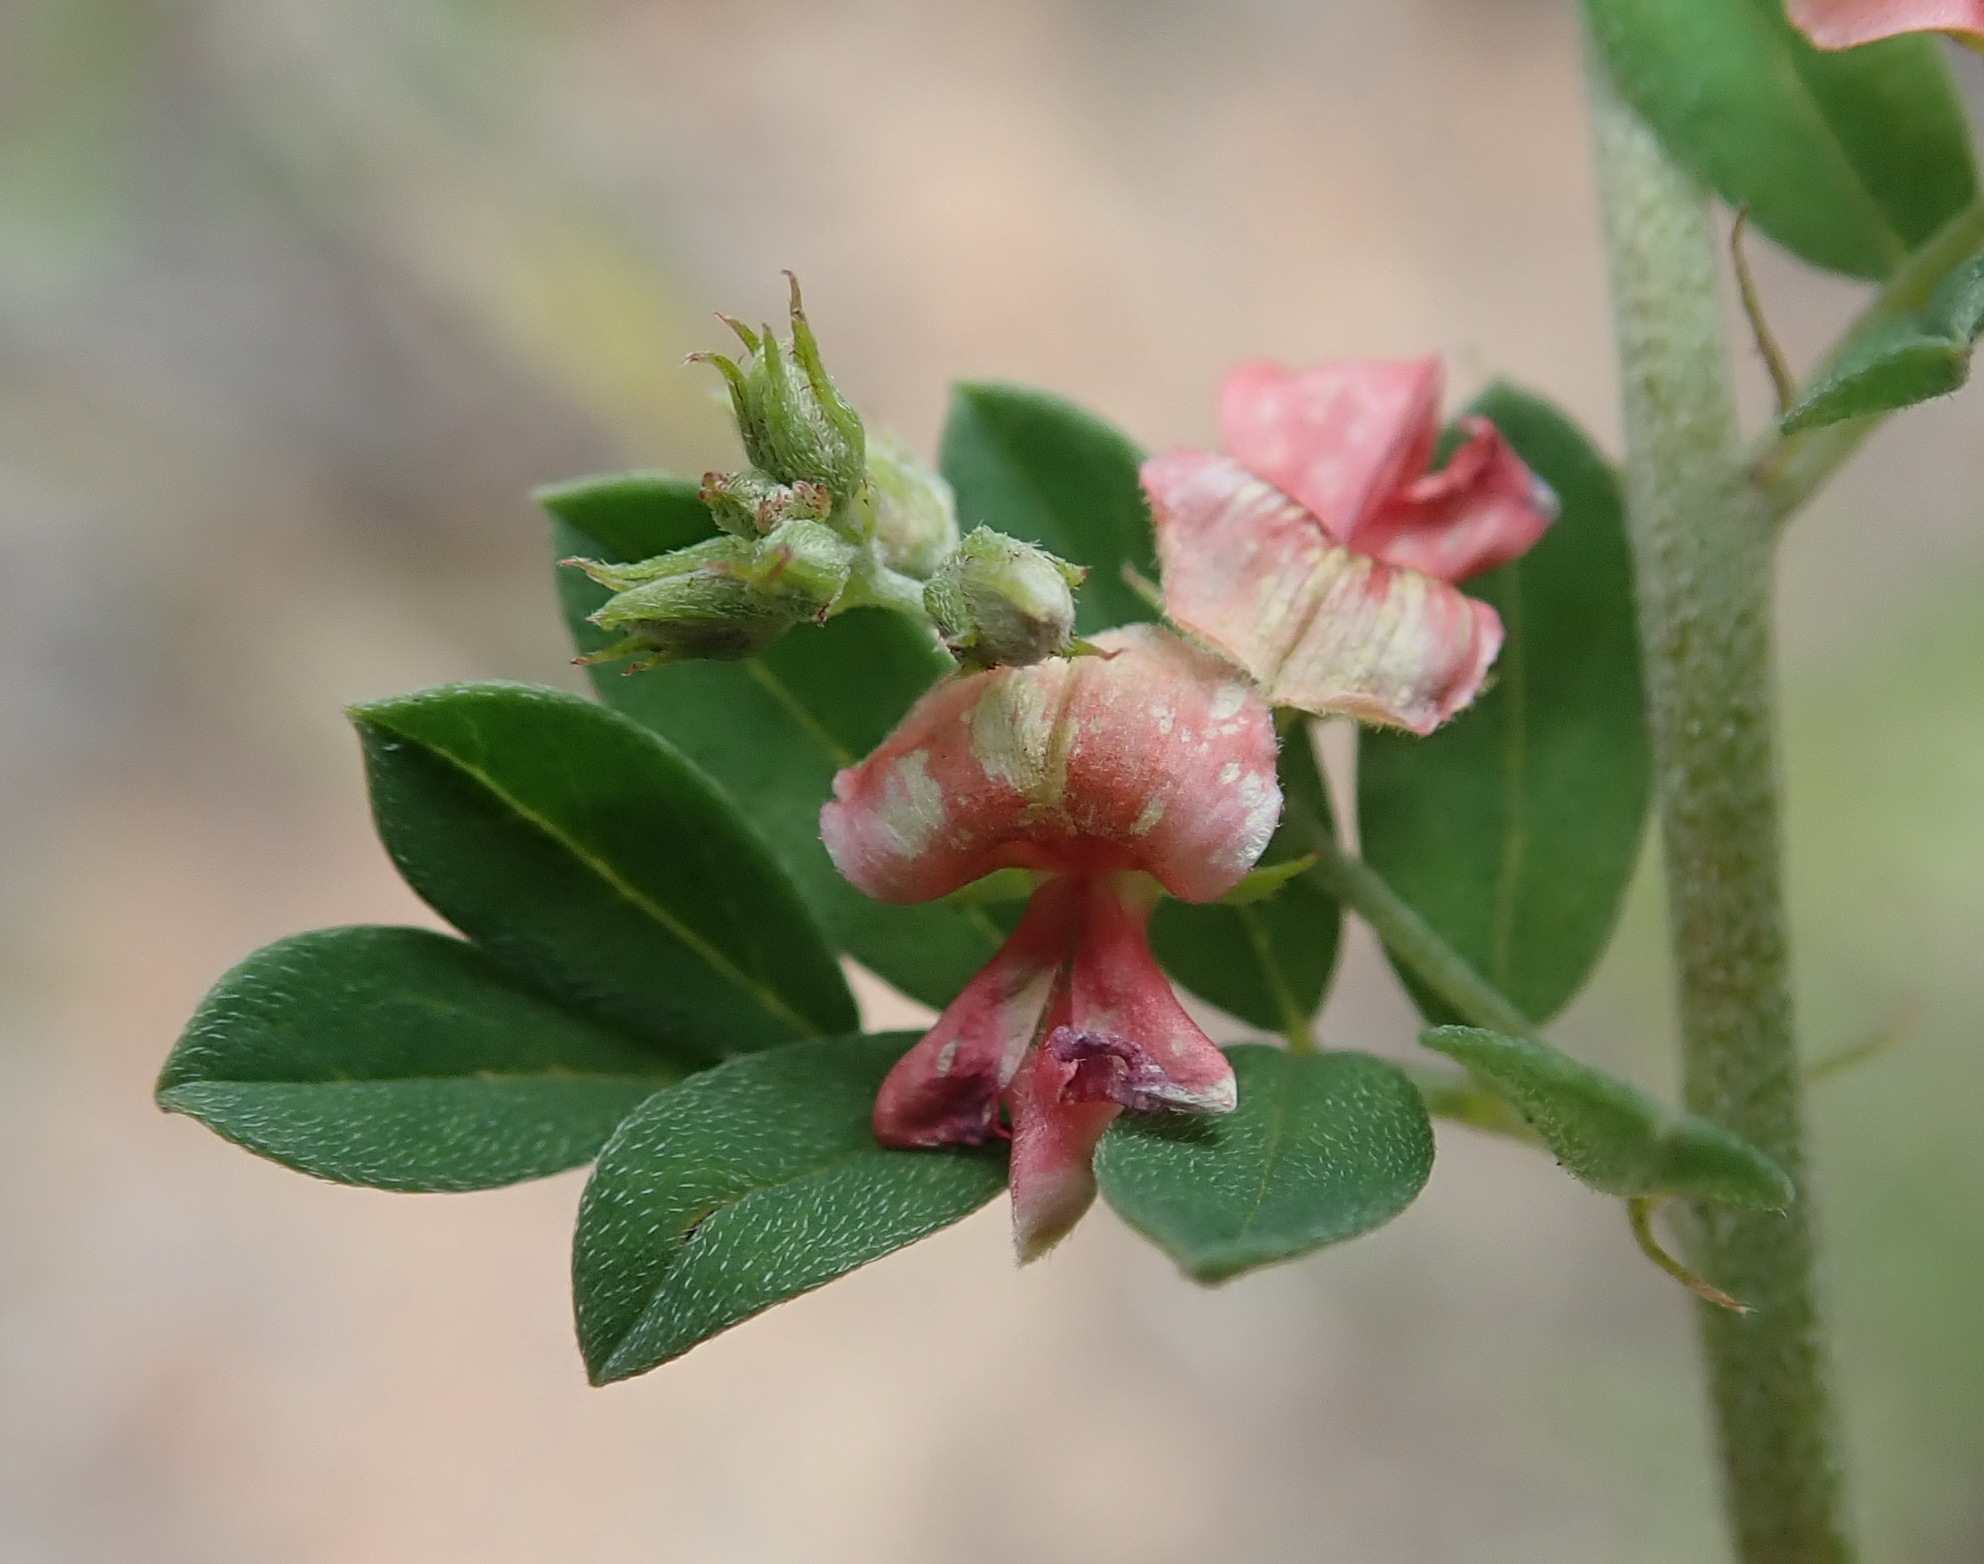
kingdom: Plantae
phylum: Tracheophyta
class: Magnoliopsida
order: Fabales
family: Fabaceae
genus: Indigofera
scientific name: Indigofera poliotes
